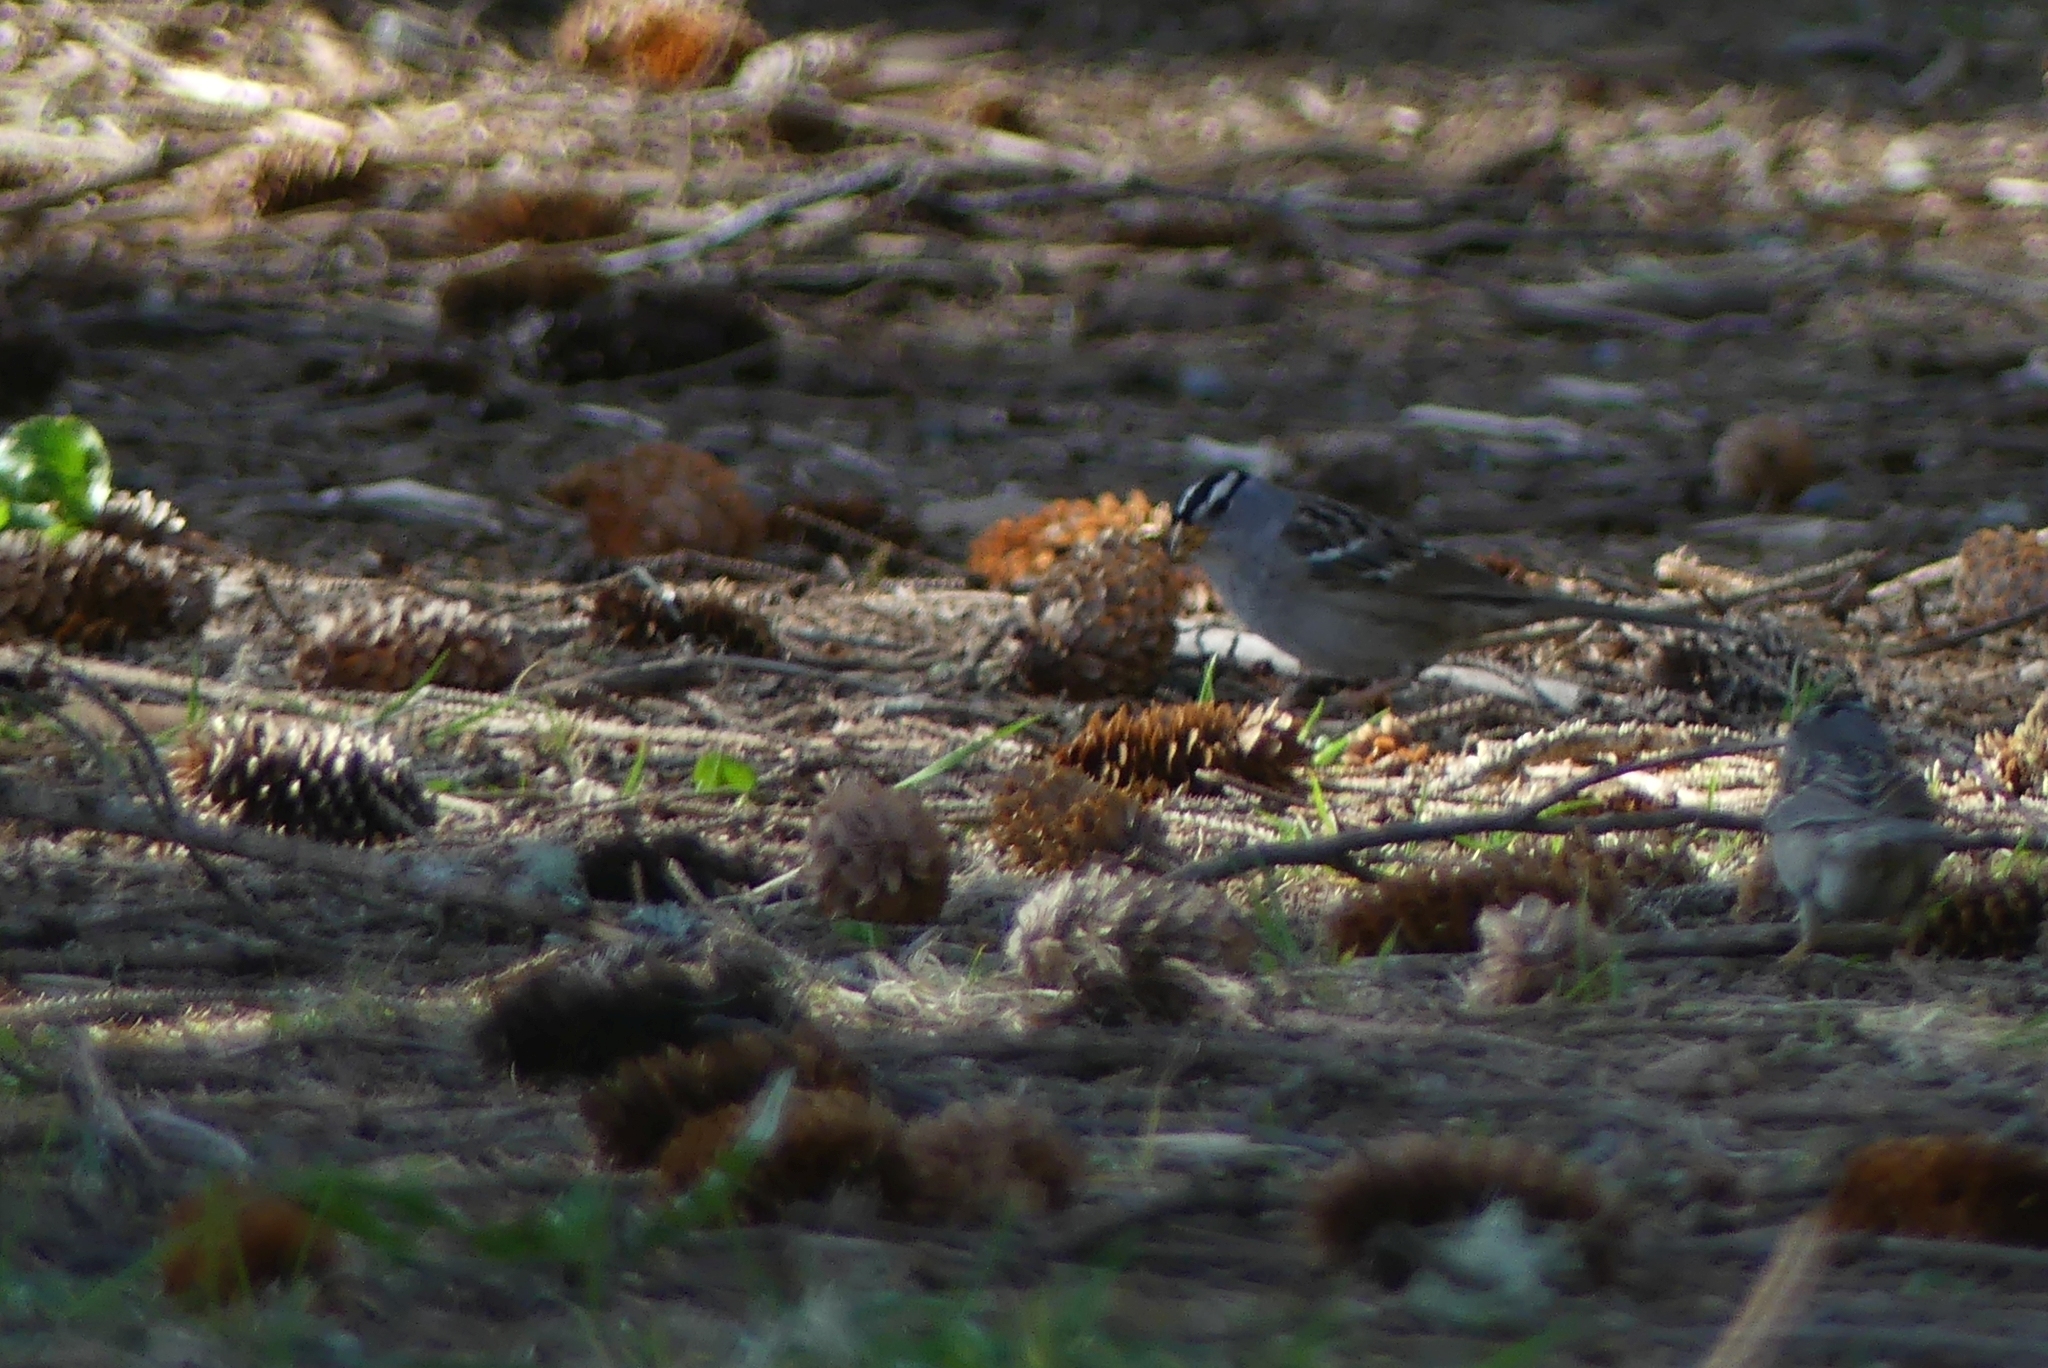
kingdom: Animalia
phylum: Chordata
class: Aves
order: Passeriformes
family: Passerellidae
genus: Zonotrichia
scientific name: Zonotrichia leucophrys
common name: White-crowned sparrow
